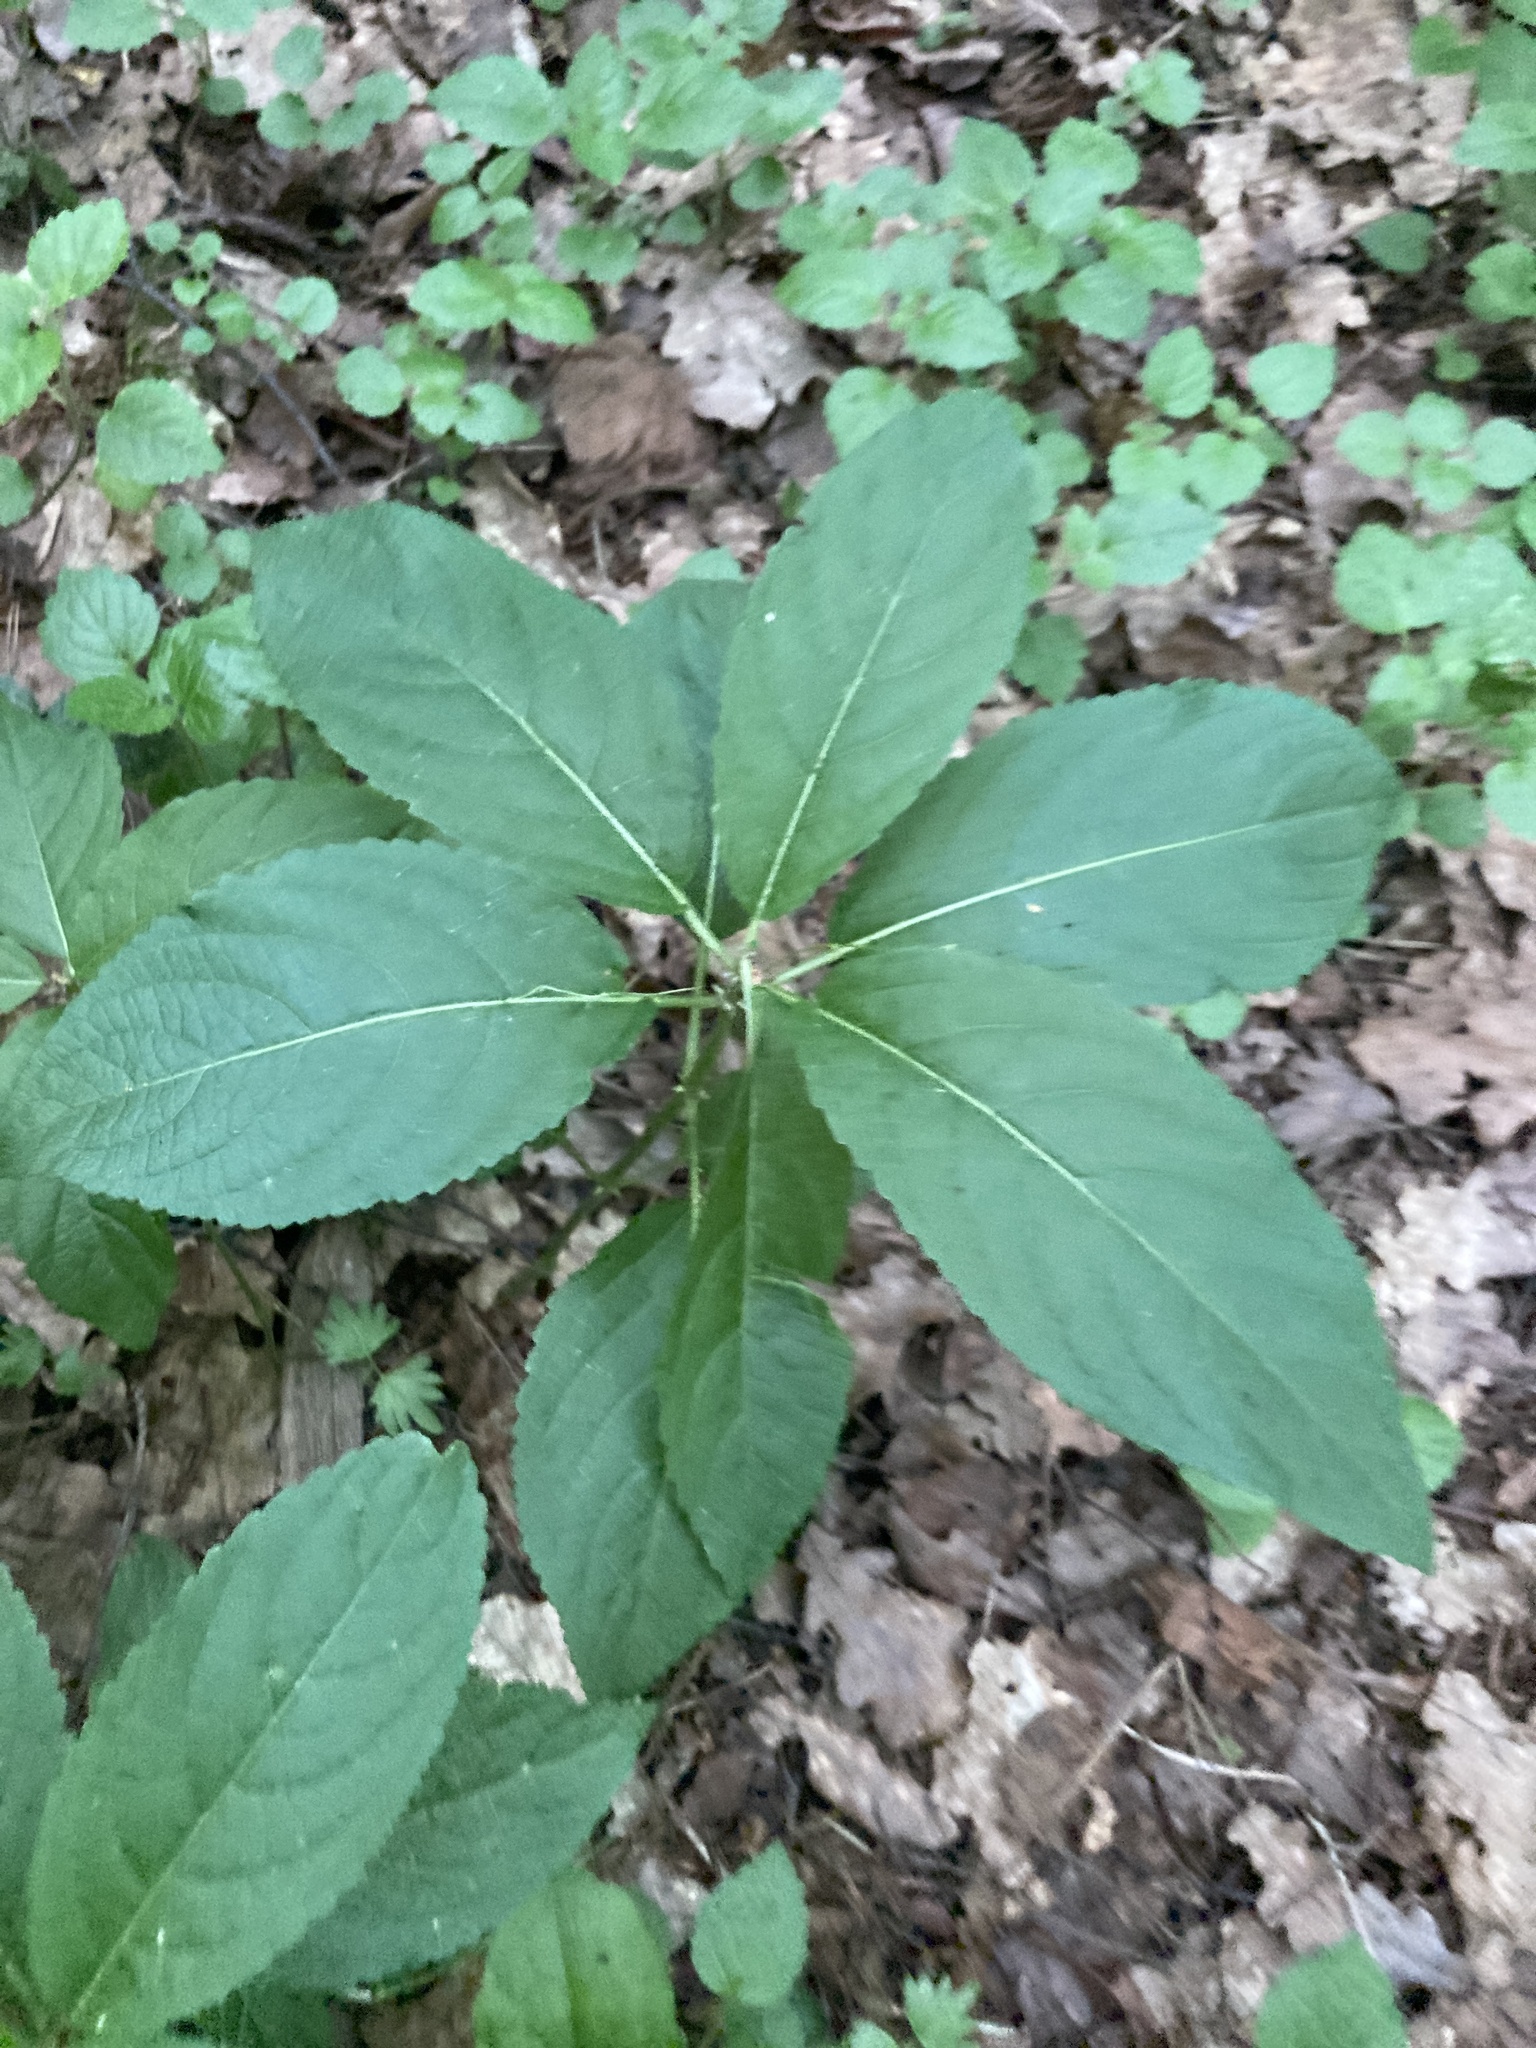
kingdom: Plantae
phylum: Tracheophyta
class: Magnoliopsida
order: Malpighiales
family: Euphorbiaceae
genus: Mercurialis
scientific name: Mercurialis perennis
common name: Dog mercury
